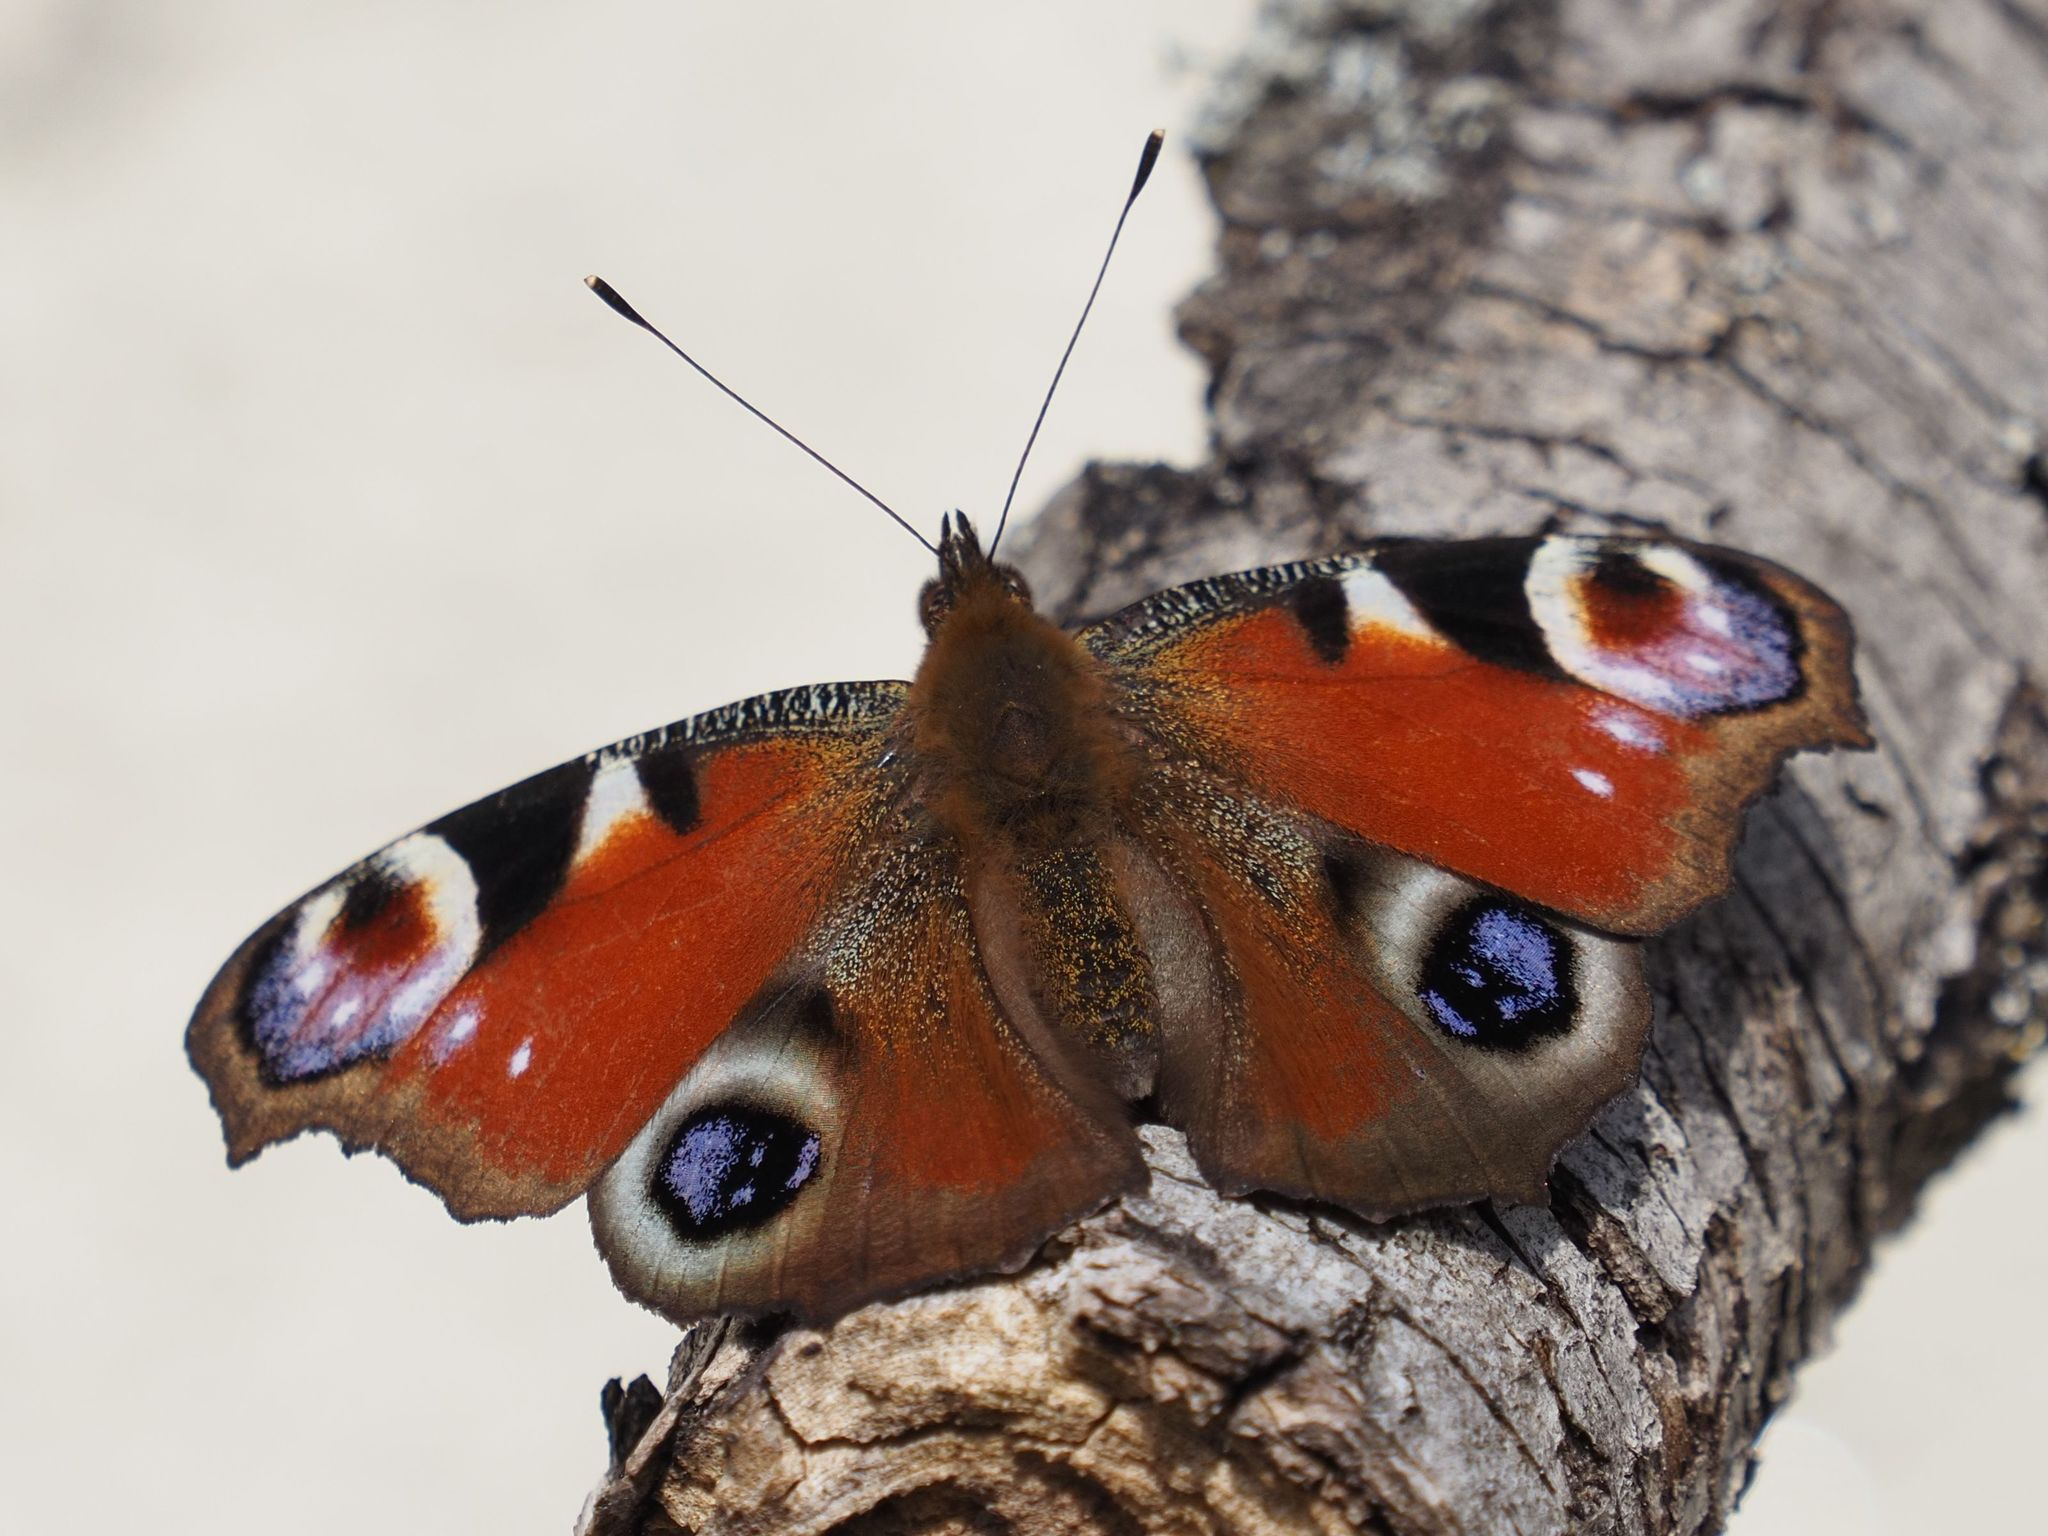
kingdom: Animalia
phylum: Arthropoda
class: Insecta
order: Lepidoptera
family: Nymphalidae
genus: Aglais
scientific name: Aglais io
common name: Peacock
